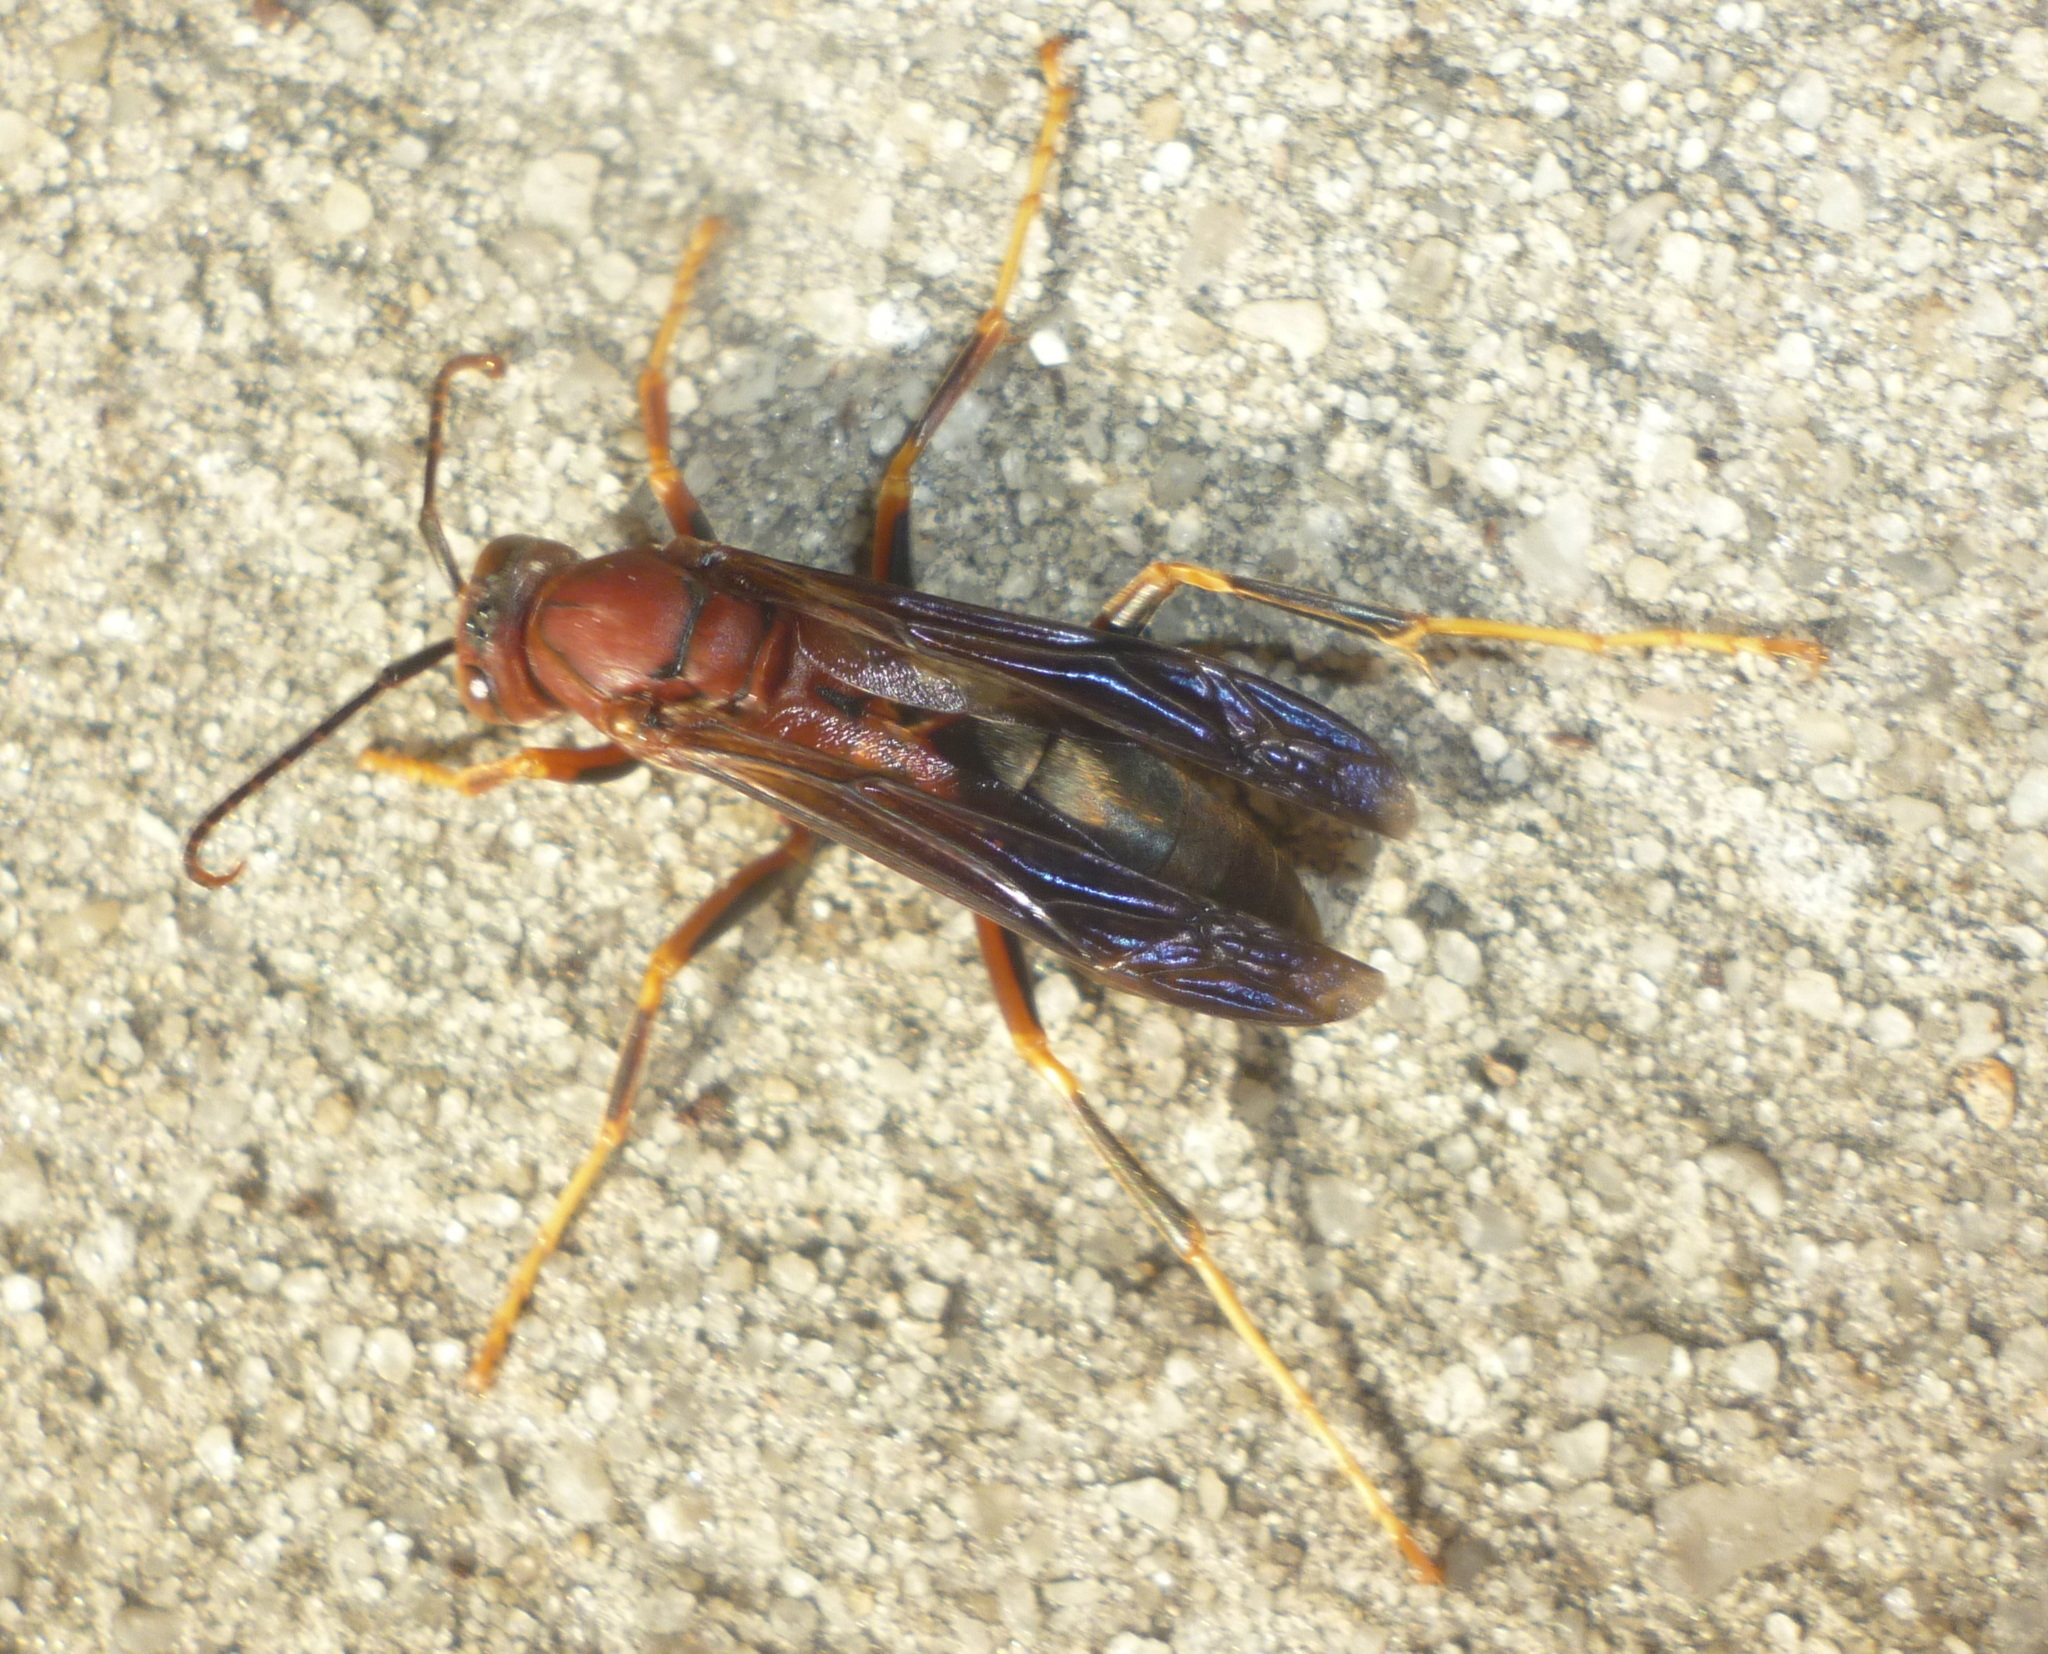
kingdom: Animalia
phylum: Arthropoda
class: Insecta
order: Hymenoptera
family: Eumenidae
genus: Polistes
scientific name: Polistes metricus
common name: Metric paper wasp
